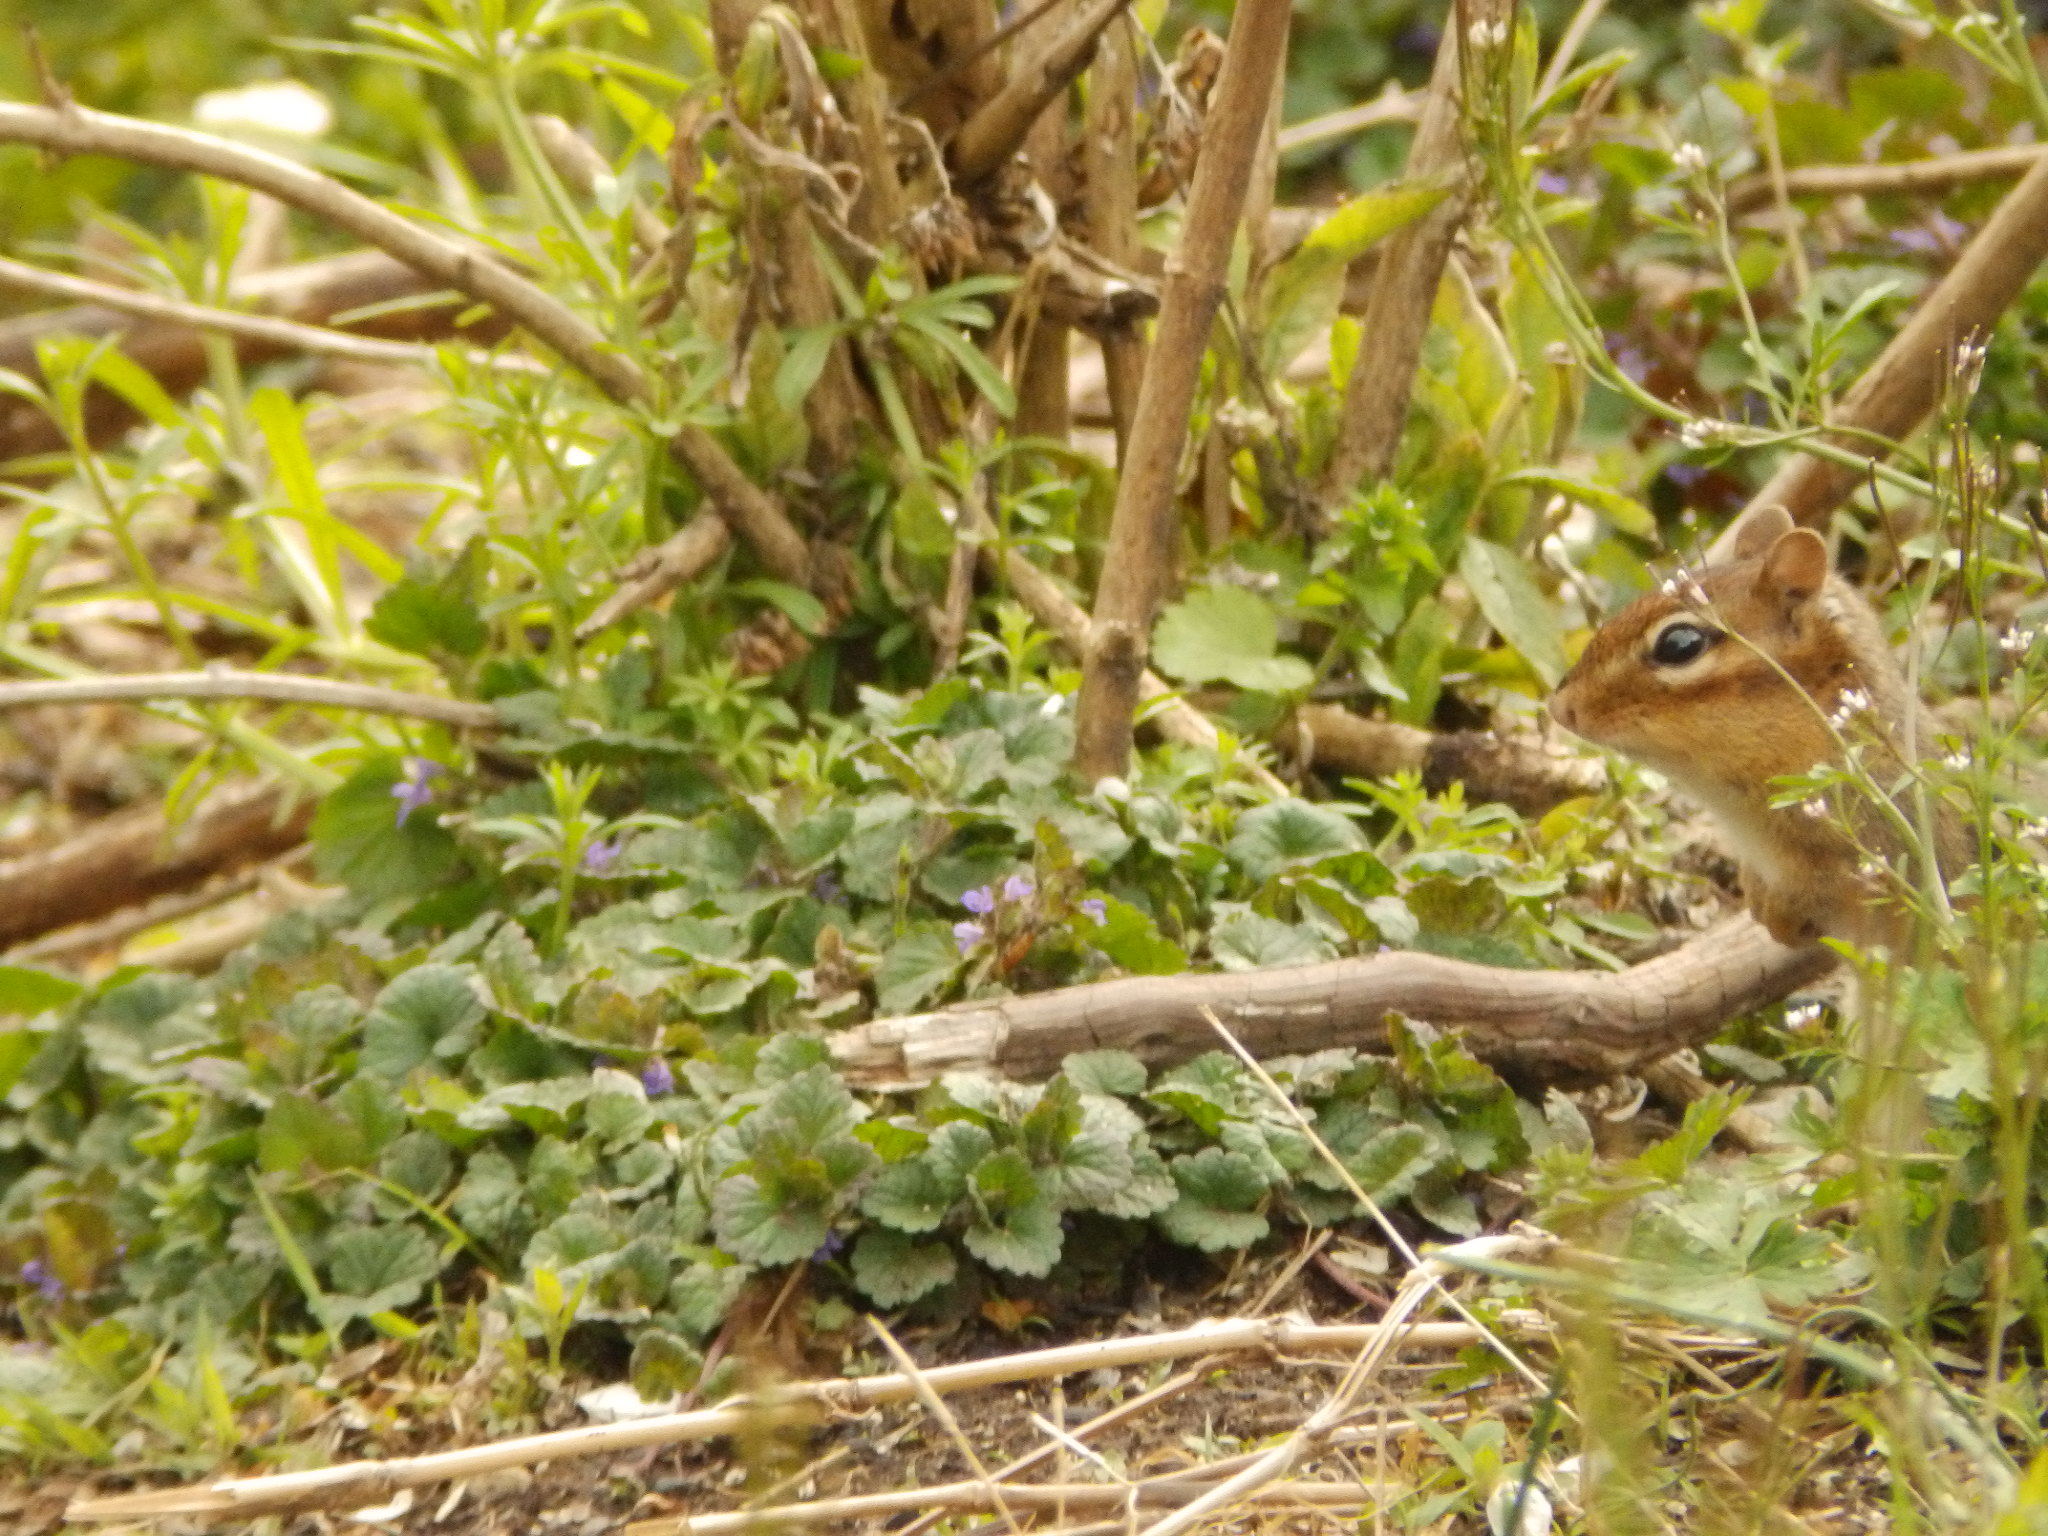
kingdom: Animalia
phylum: Chordata
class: Mammalia
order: Rodentia
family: Sciuridae
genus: Tamias
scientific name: Tamias striatus
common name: Eastern chipmunk
